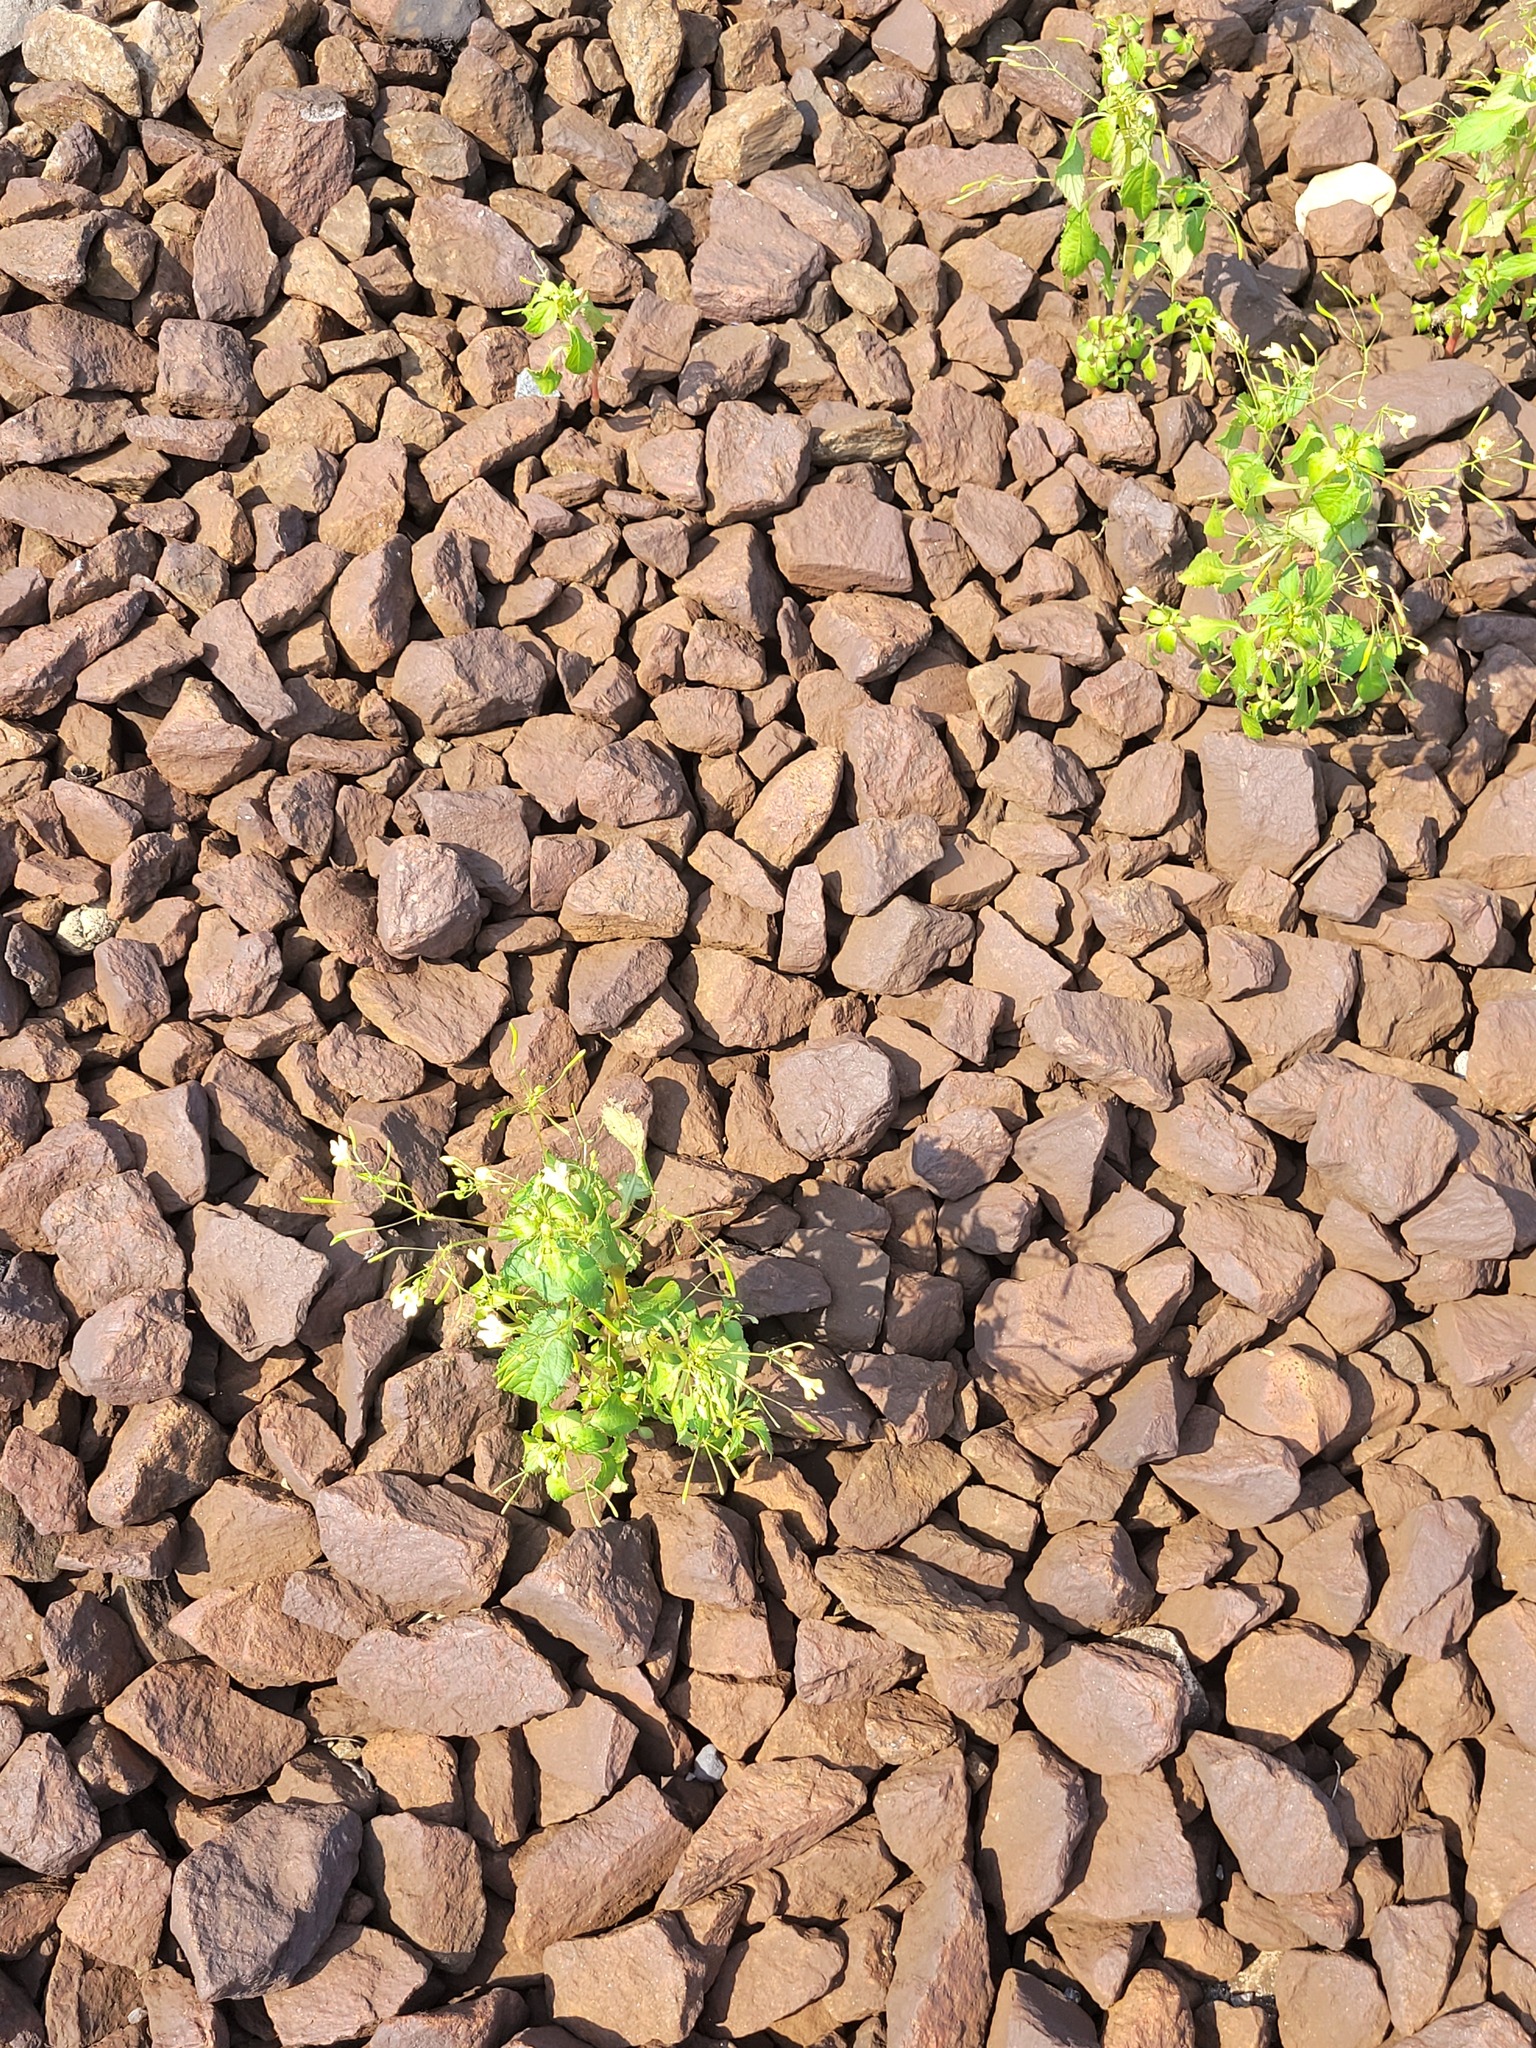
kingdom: Plantae
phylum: Tracheophyta
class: Magnoliopsida
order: Ericales
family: Balsaminaceae
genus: Impatiens
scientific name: Impatiens parviflora
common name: Small balsam
